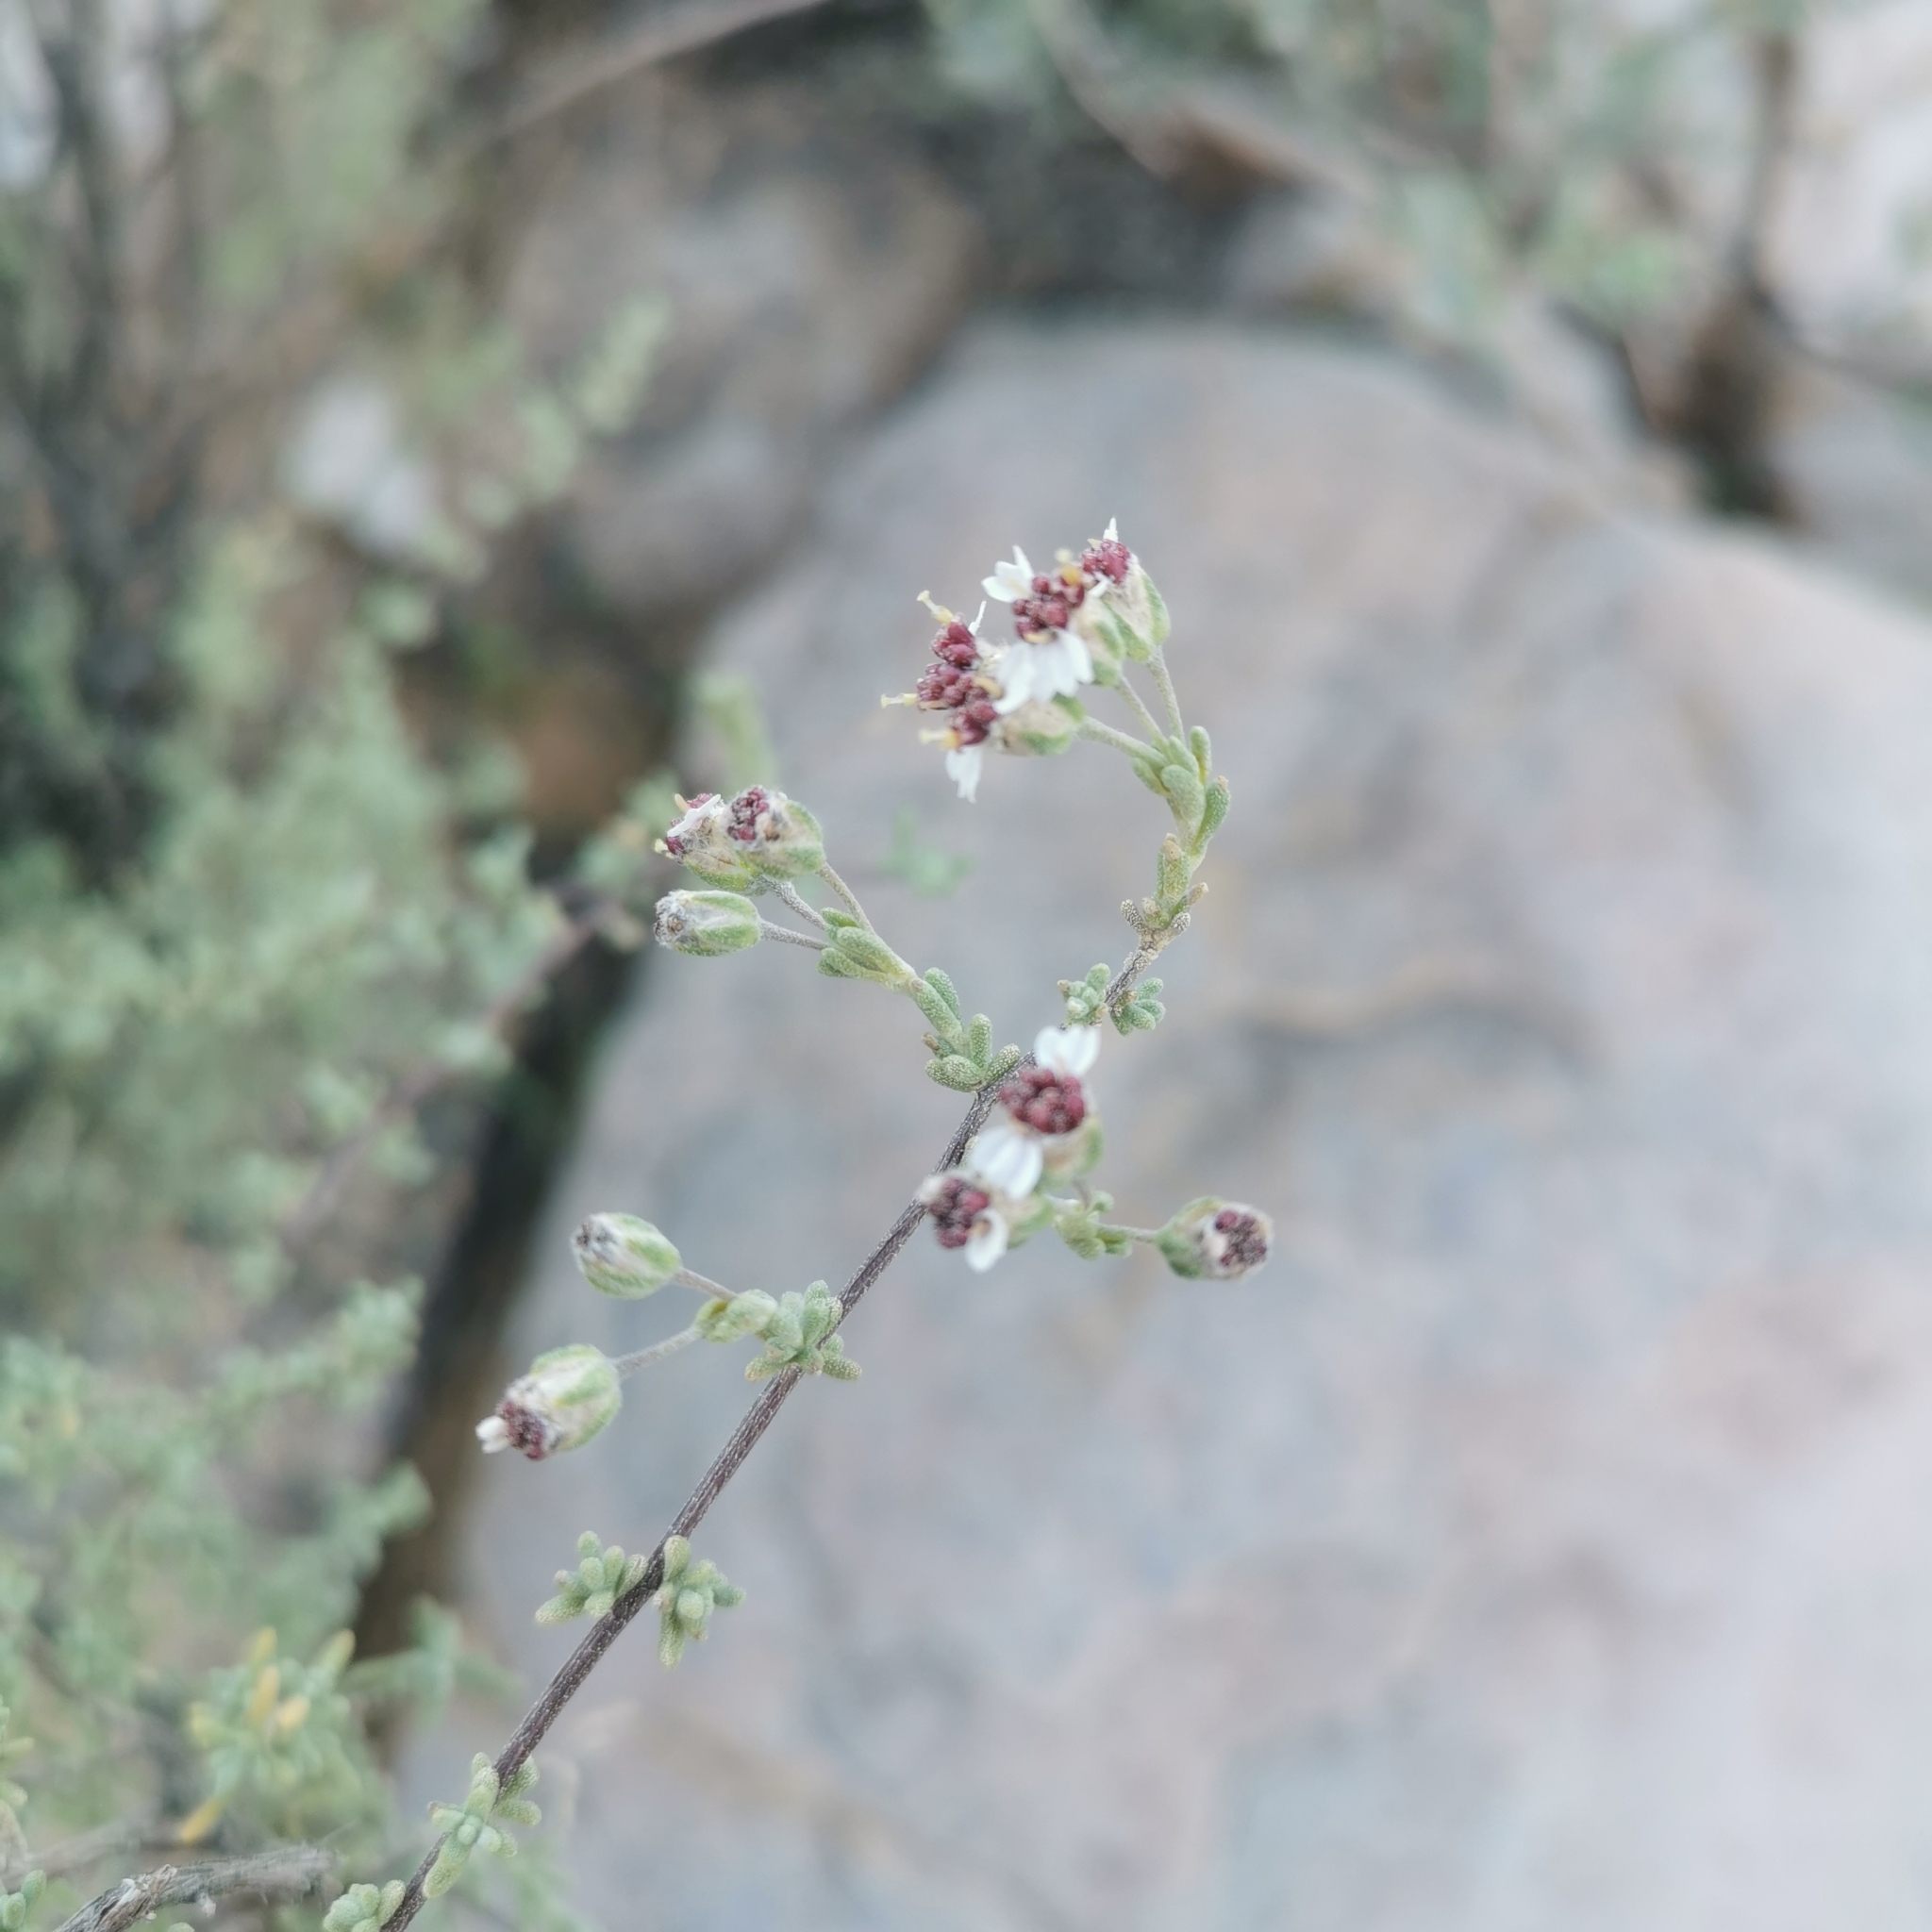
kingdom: Plantae
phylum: Tracheophyta
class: Magnoliopsida
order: Asterales
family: Asteraceae
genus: Eriocephalus
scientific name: Eriocephalus punctulatus
